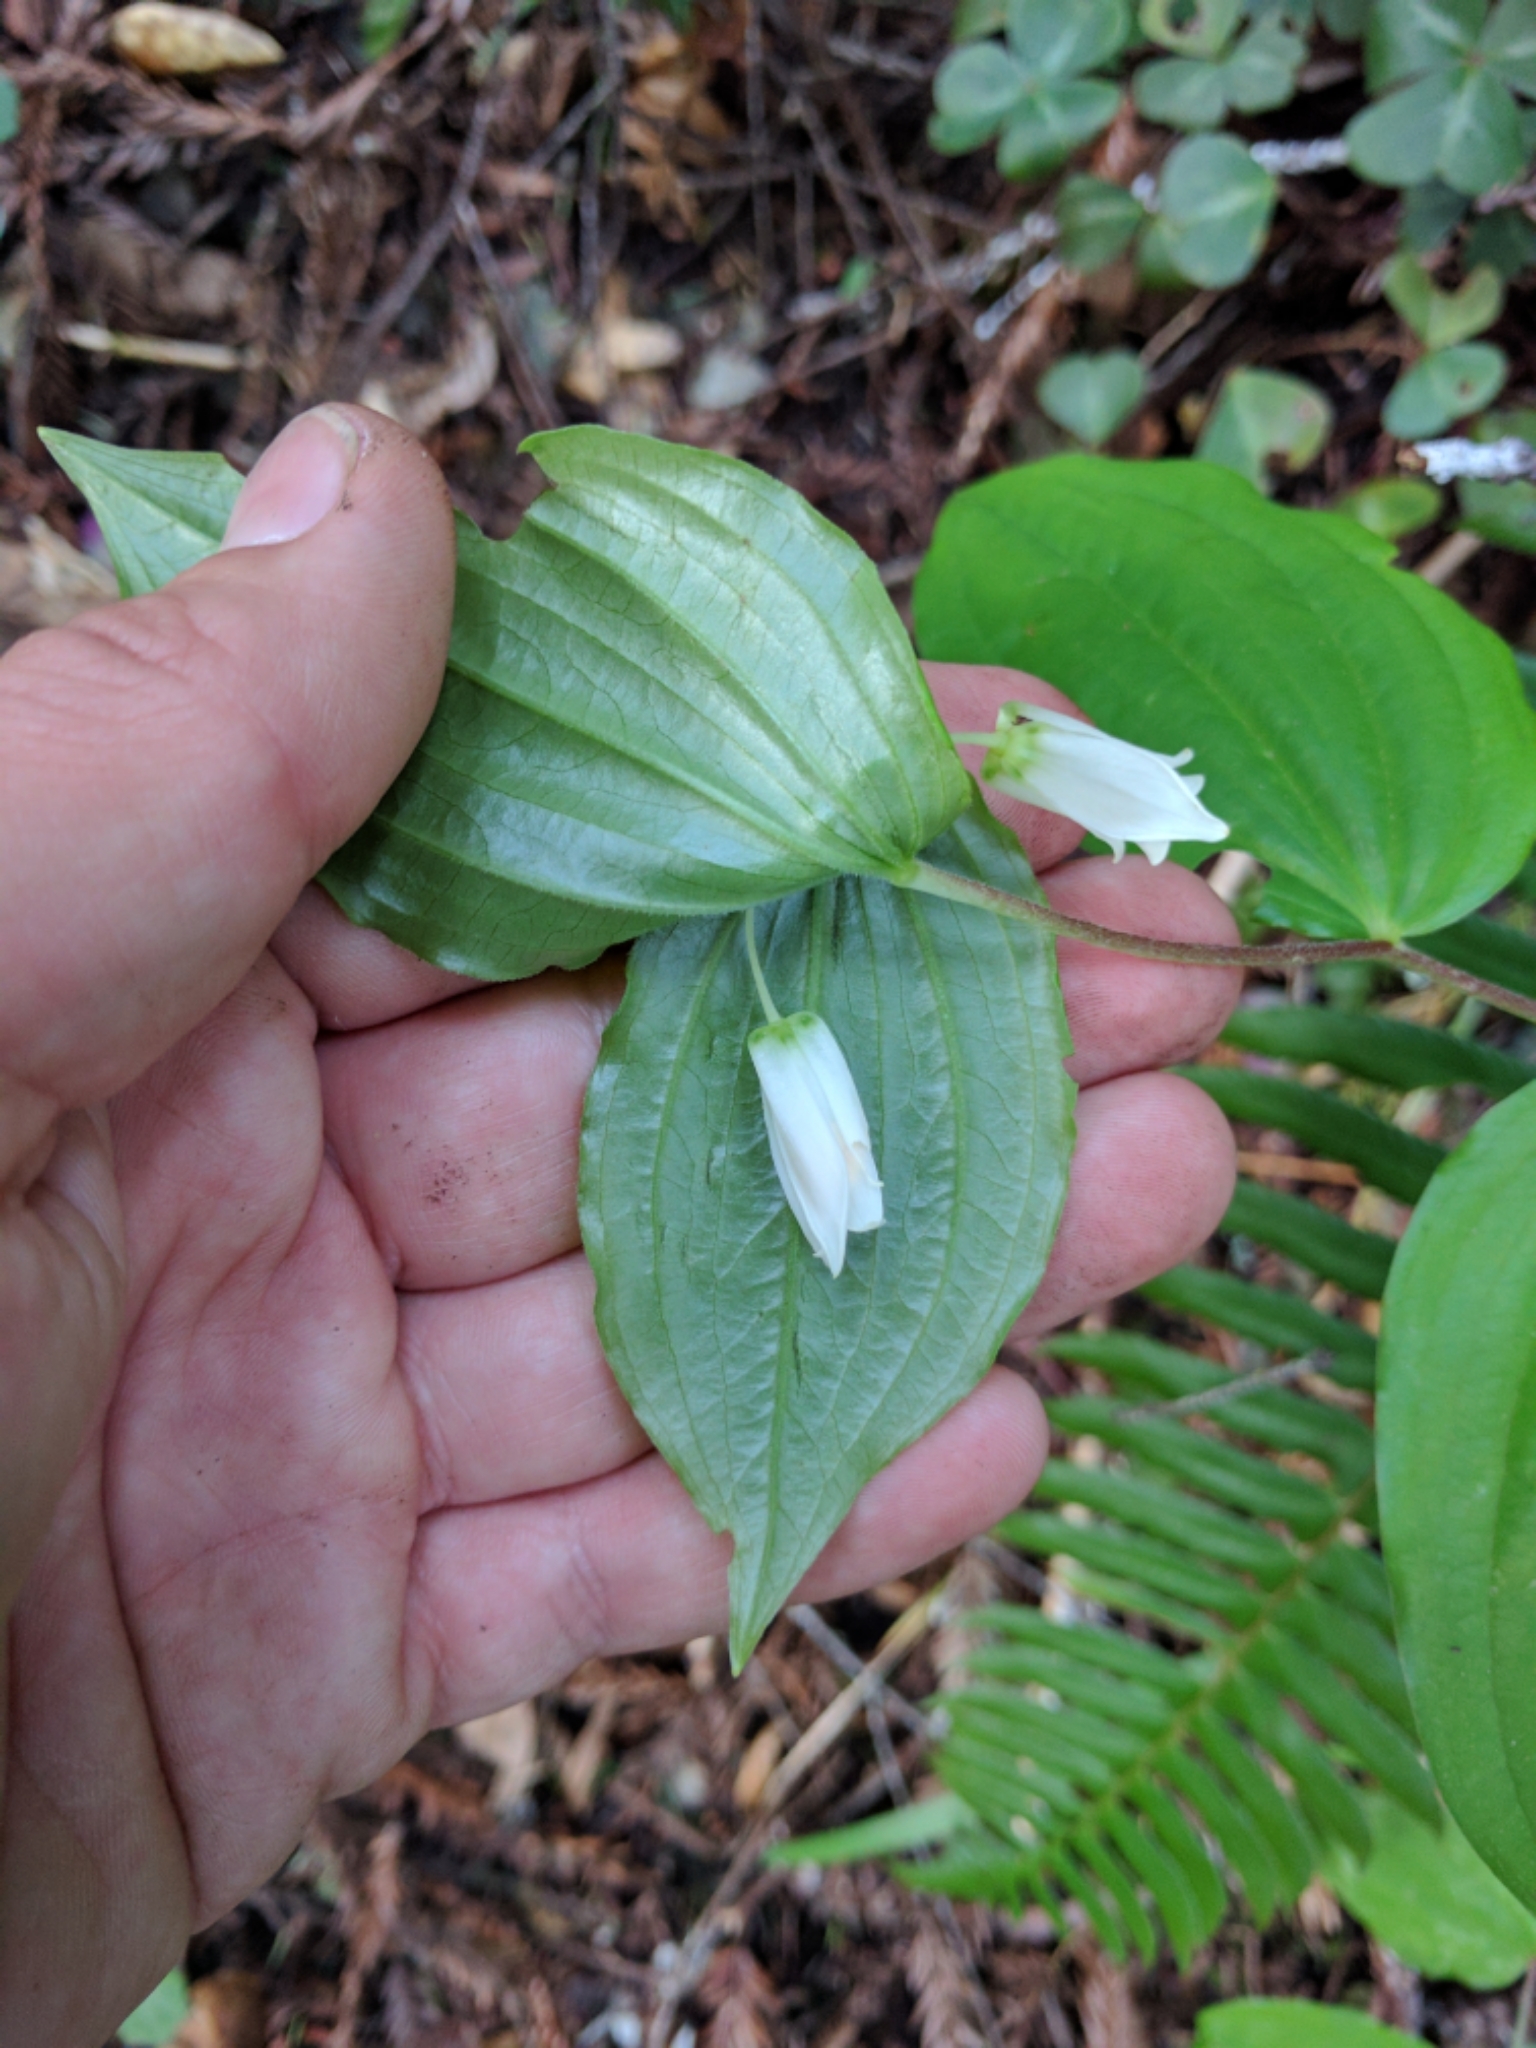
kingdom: Plantae
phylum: Tracheophyta
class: Liliopsida
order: Liliales
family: Liliaceae
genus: Prosartes
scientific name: Prosartes smithii
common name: Fairy-lantern
